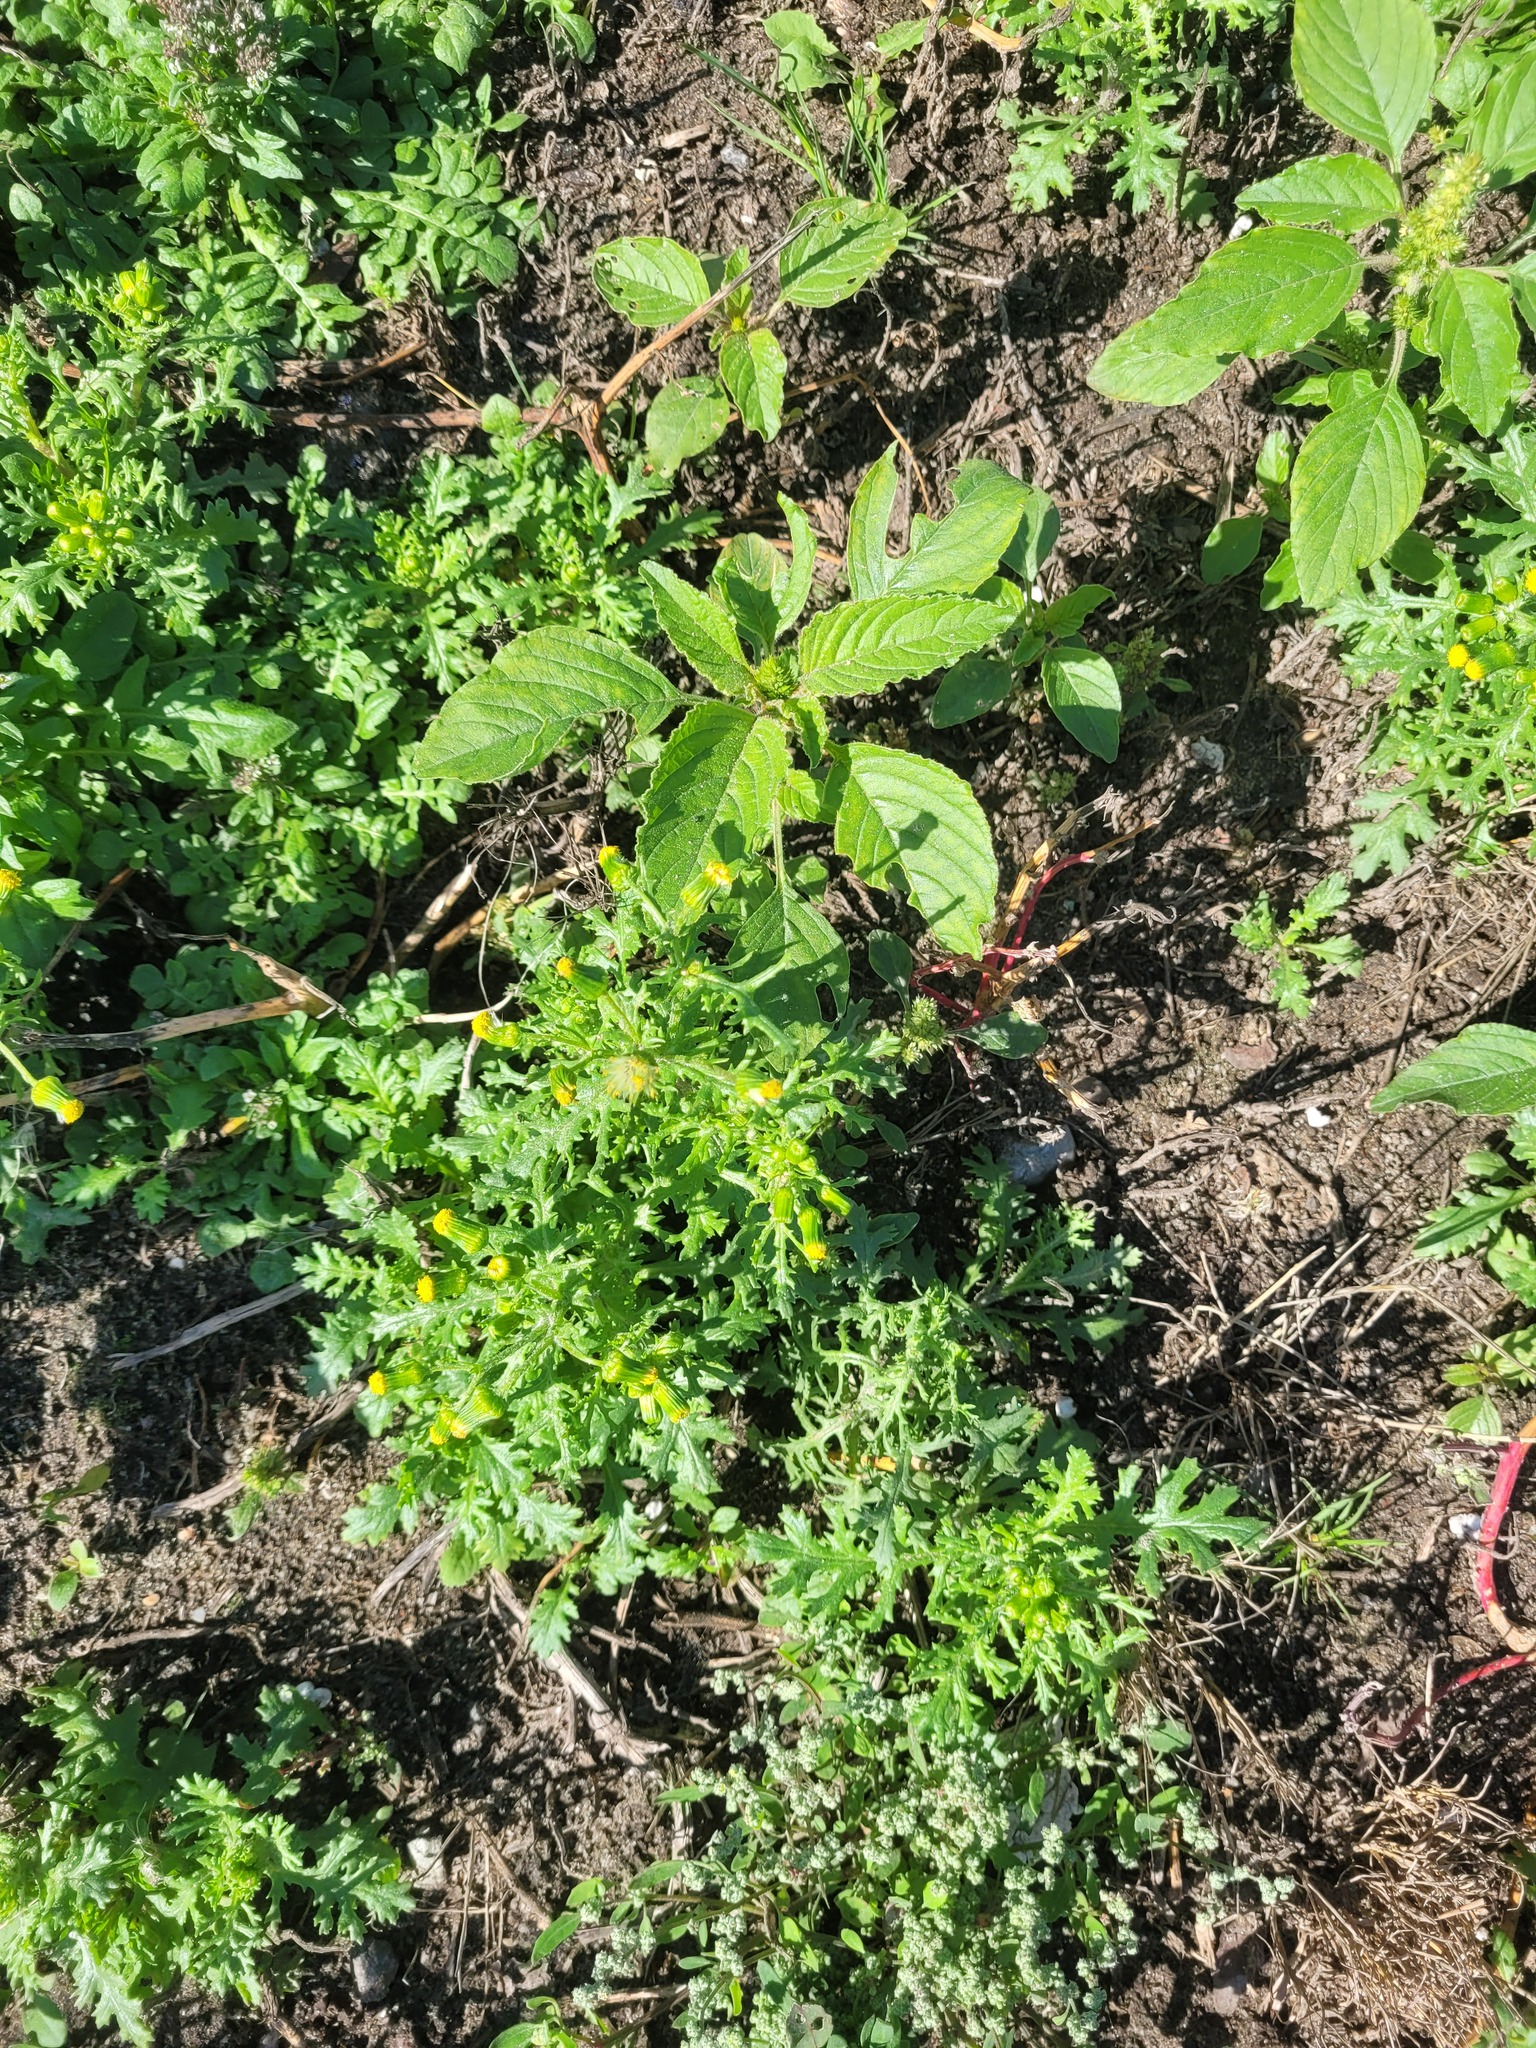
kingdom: Plantae
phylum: Tracheophyta
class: Magnoliopsida
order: Asterales
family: Asteraceae
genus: Senecio
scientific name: Senecio vulgaris
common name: Old-man-in-the-spring
